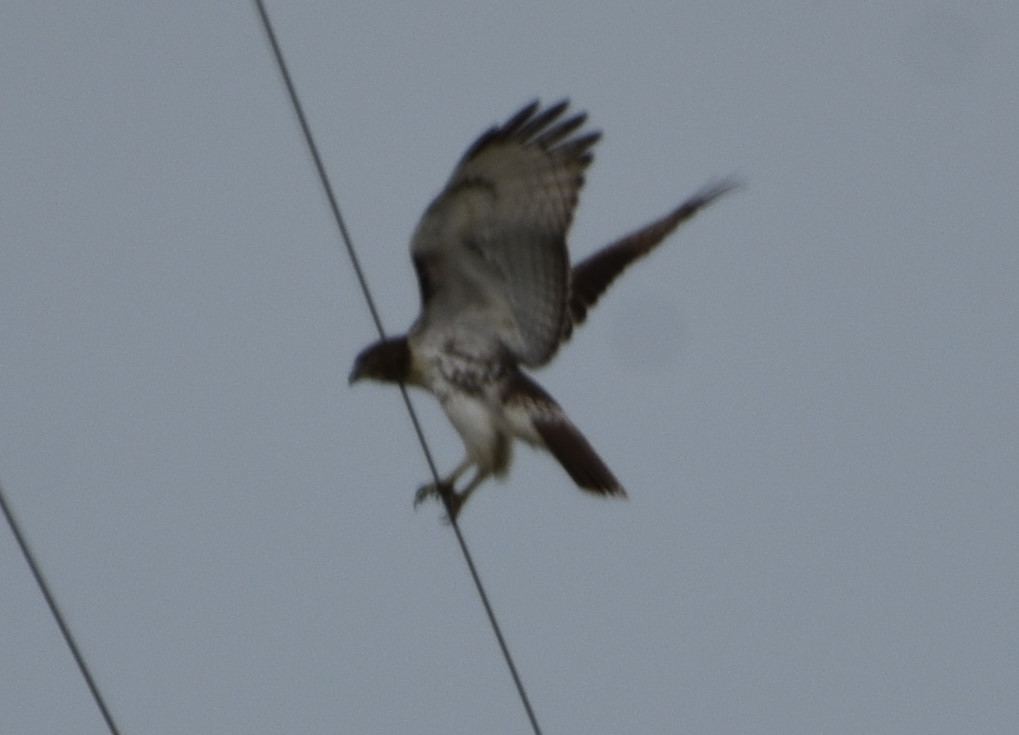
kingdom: Animalia
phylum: Chordata
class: Aves
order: Accipitriformes
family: Accipitridae
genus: Buteo
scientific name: Buteo jamaicensis
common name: Red-tailed hawk
